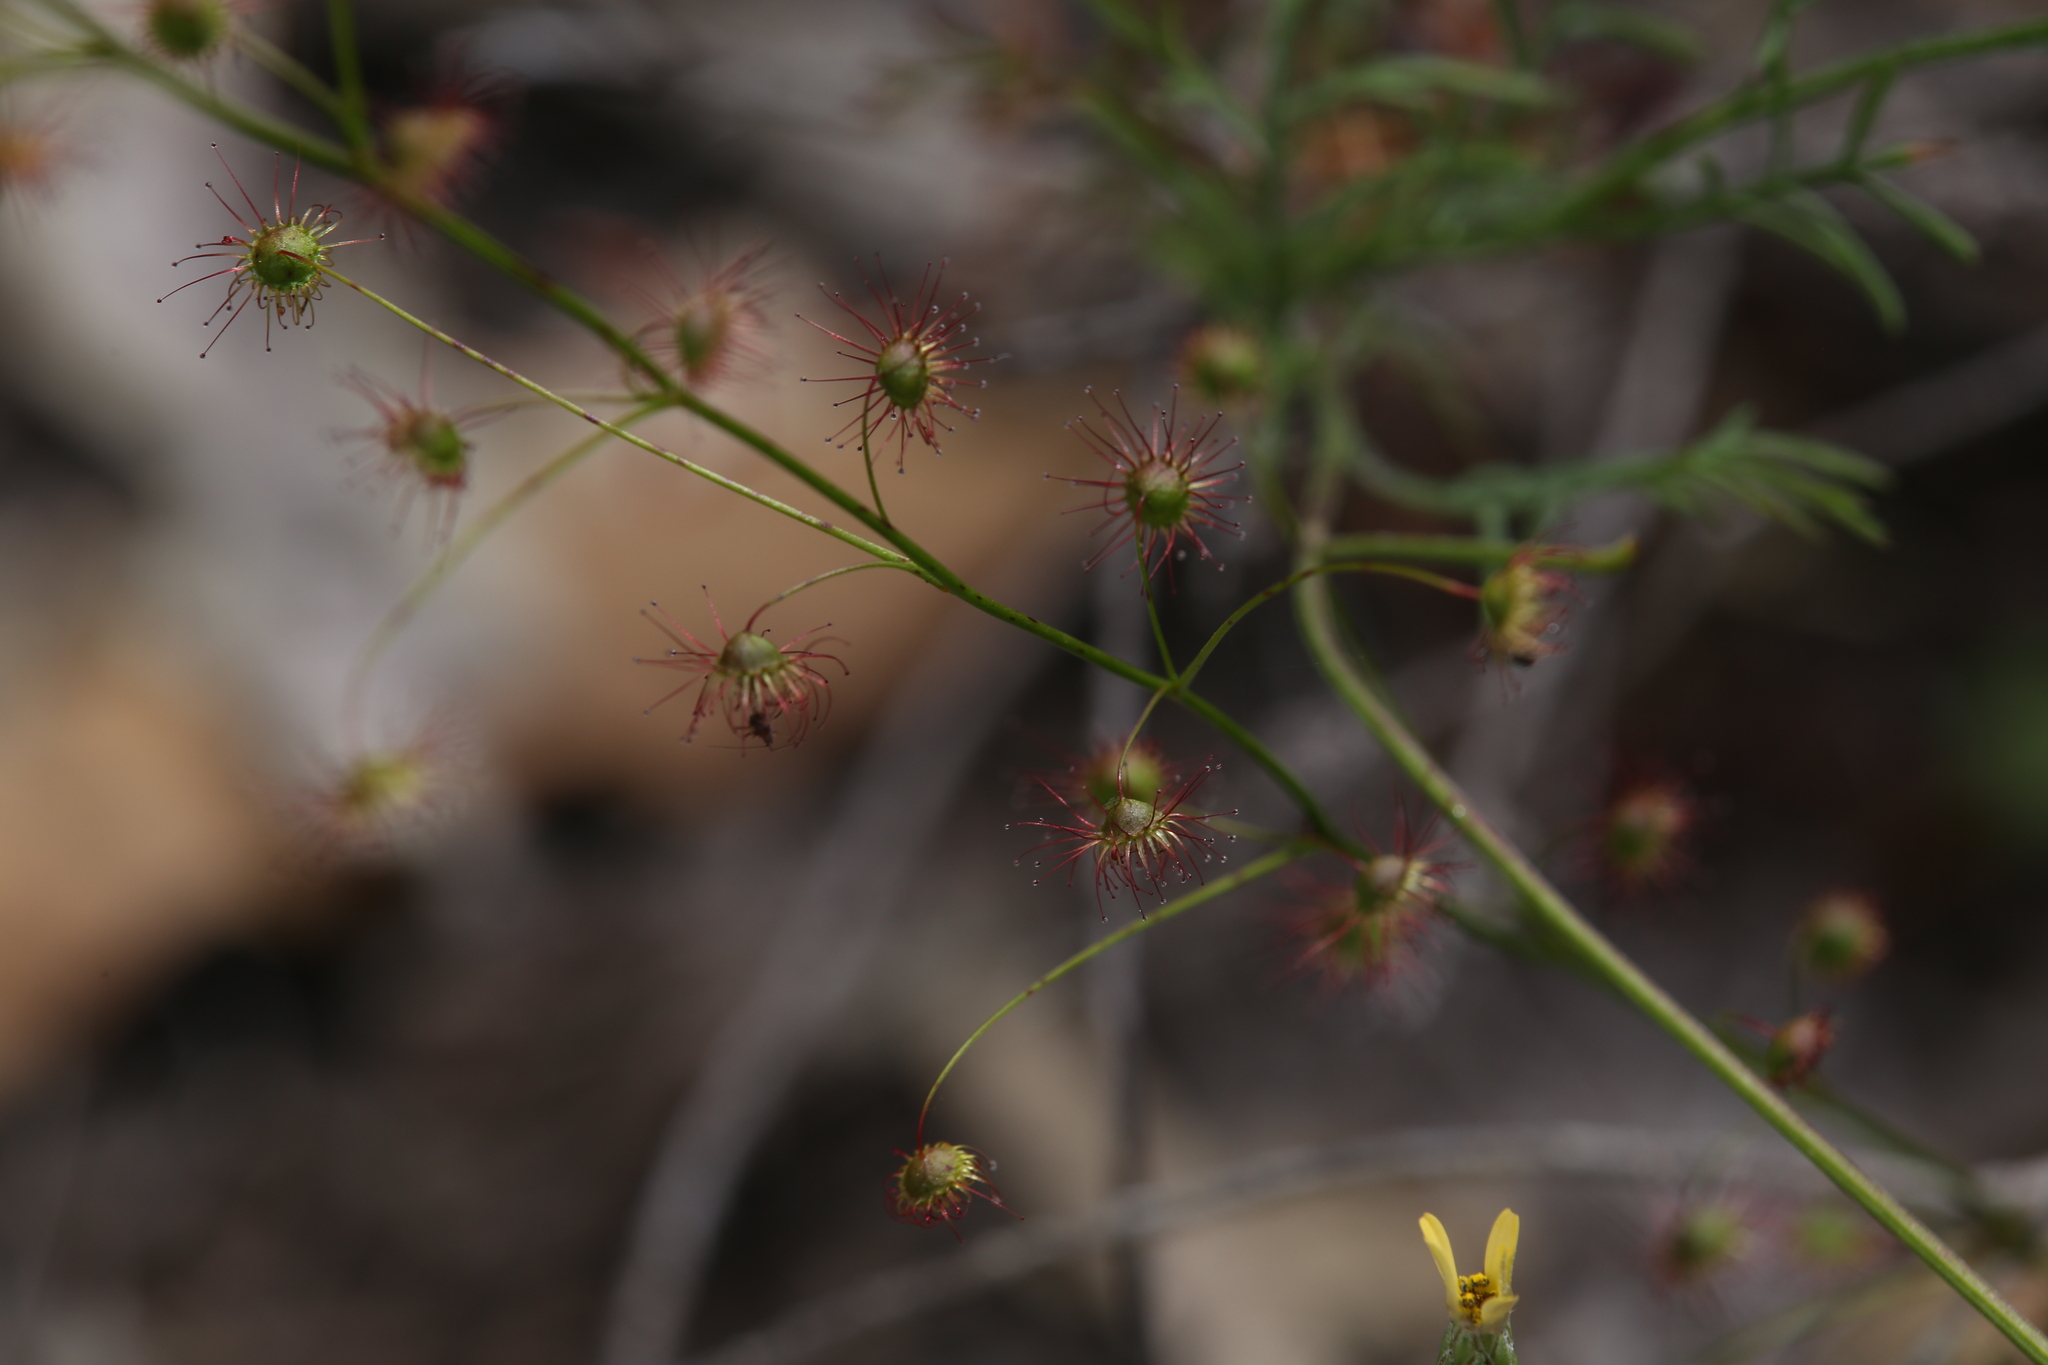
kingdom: Plantae
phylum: Tracheophyta
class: Magnoliopsida
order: Caryophyllales
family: Droseraceae
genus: Drosera
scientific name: Drosera
